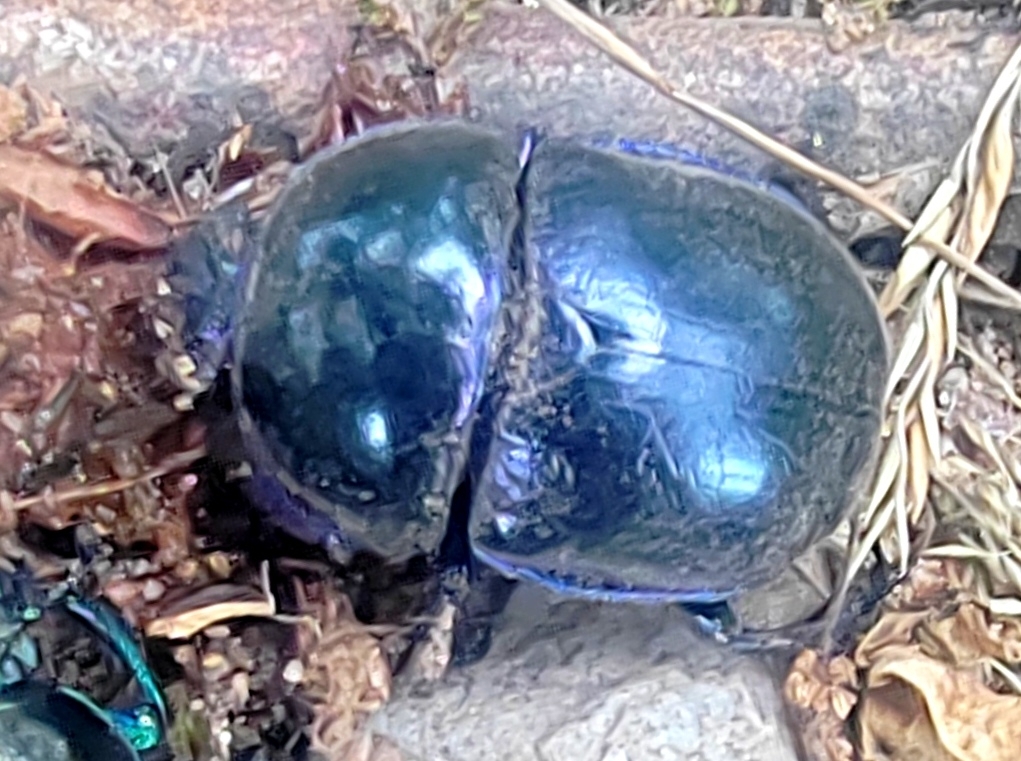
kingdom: Animalia
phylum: Arthropoda
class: Insecta
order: Coleoptera
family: Geotrupidae
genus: Trypocopris
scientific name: Trypocopris vernalis
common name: Spring dumbledor
